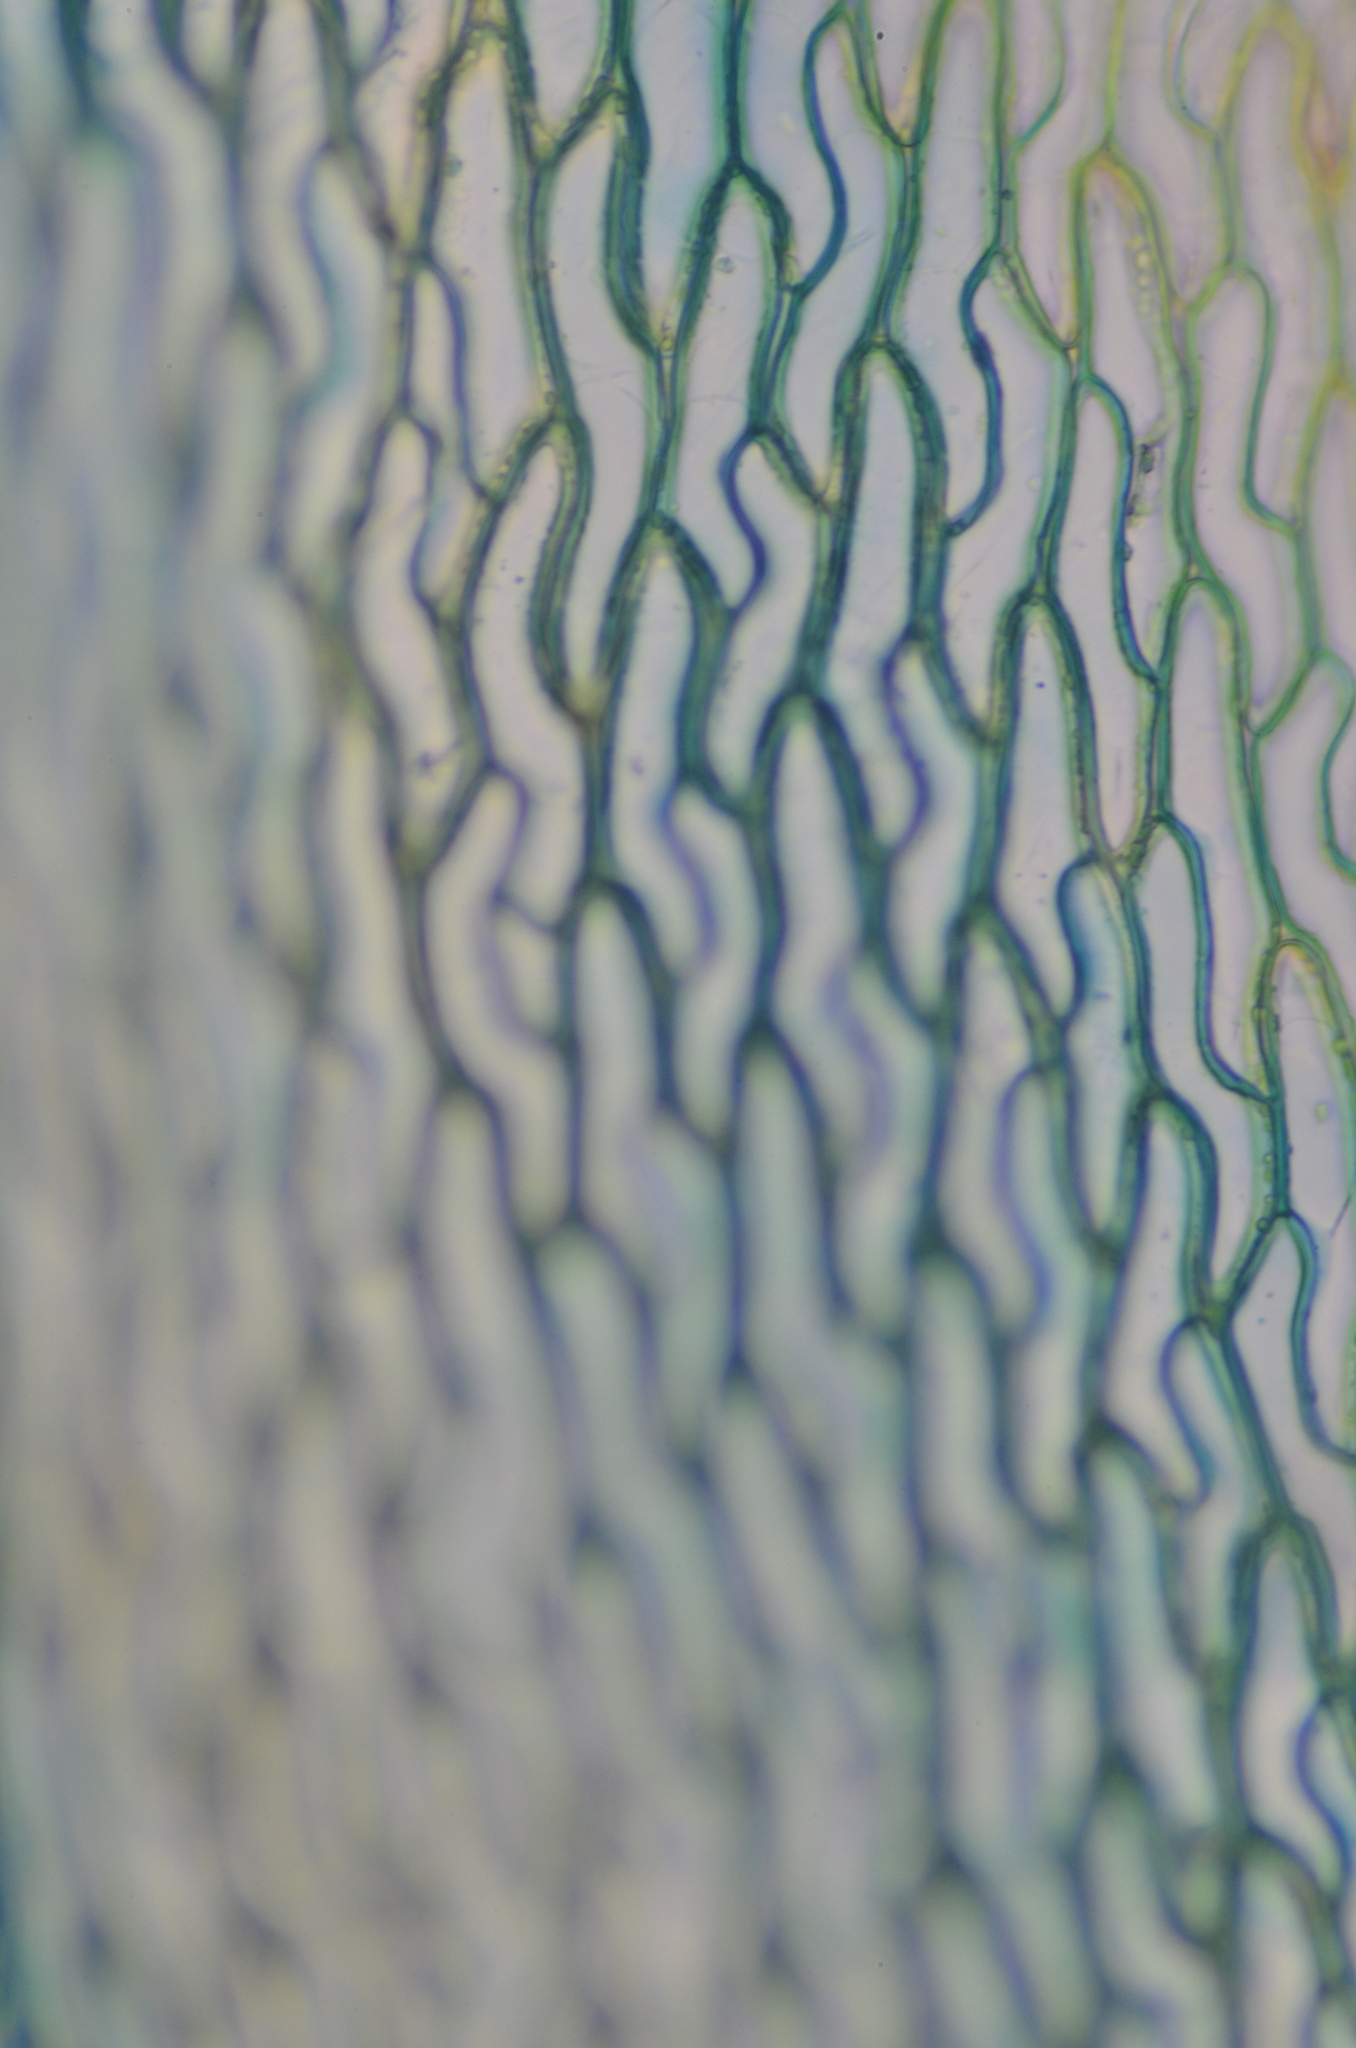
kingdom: Plantae
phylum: Bryophyta
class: Sphagnopsida
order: Sphagnales
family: Sphagnaceae
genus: Sphagnum
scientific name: Sphagnum imbricatum
